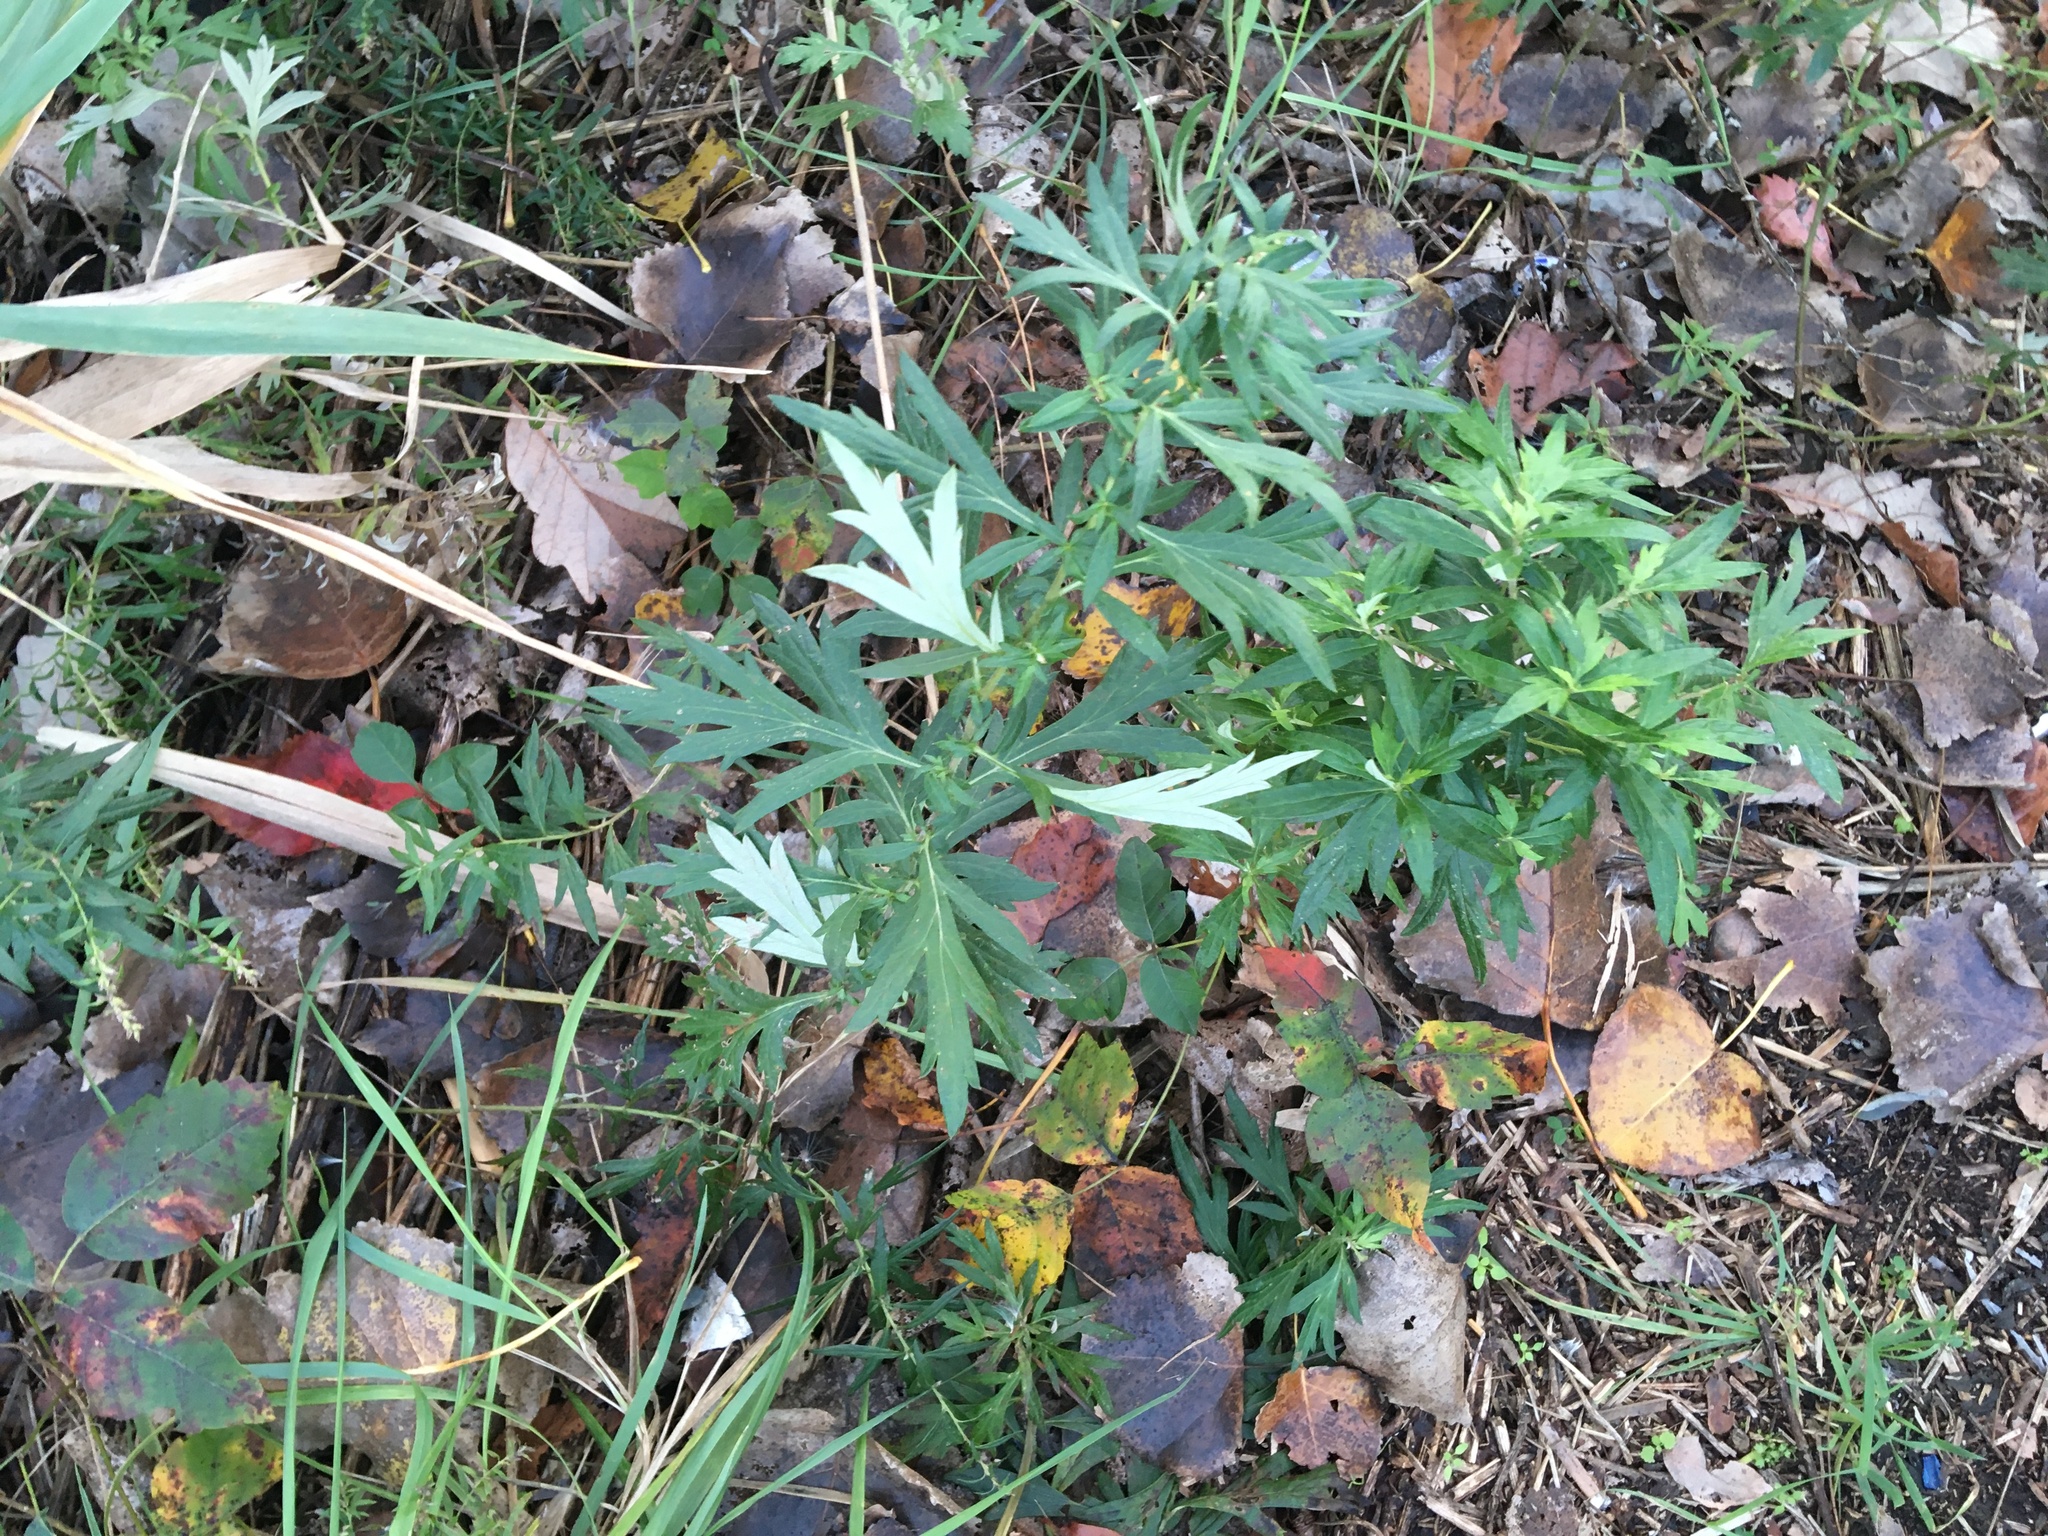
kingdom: Plantae
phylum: Tracheophyta
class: Magnoliopsida
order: Asterales
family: Asteraceae
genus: Artemisia
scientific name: Artemisia vulgaris
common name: Mugwort
